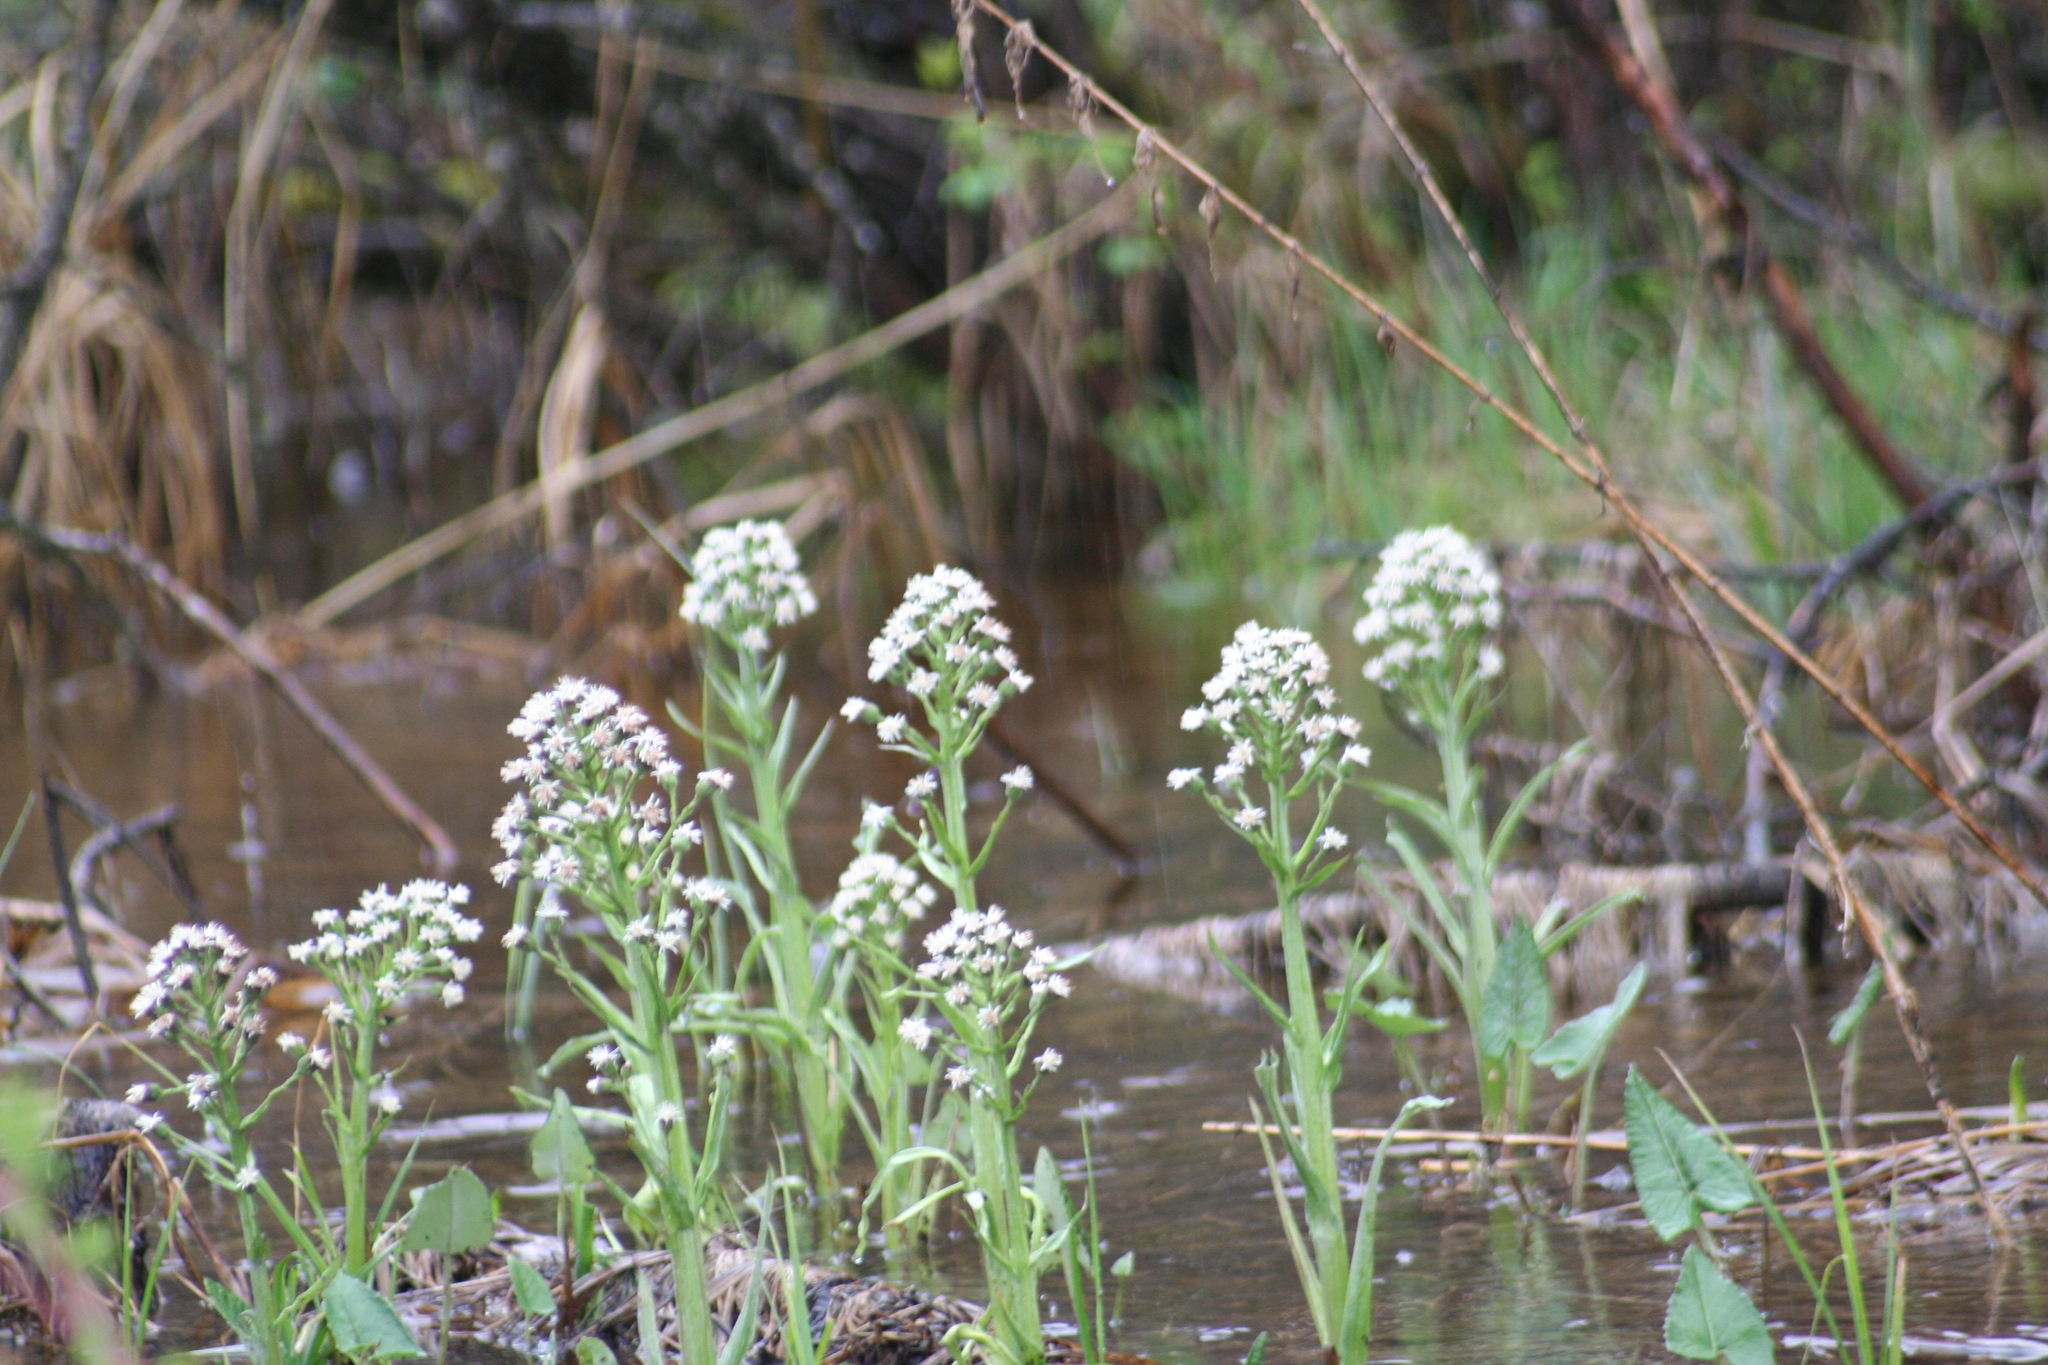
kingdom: Plantae
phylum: Tracheophyta
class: Magnoliopsida
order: Asterales
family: Asteraceae
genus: Petasites
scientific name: Petasites frigidus
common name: Arctic butterbur
